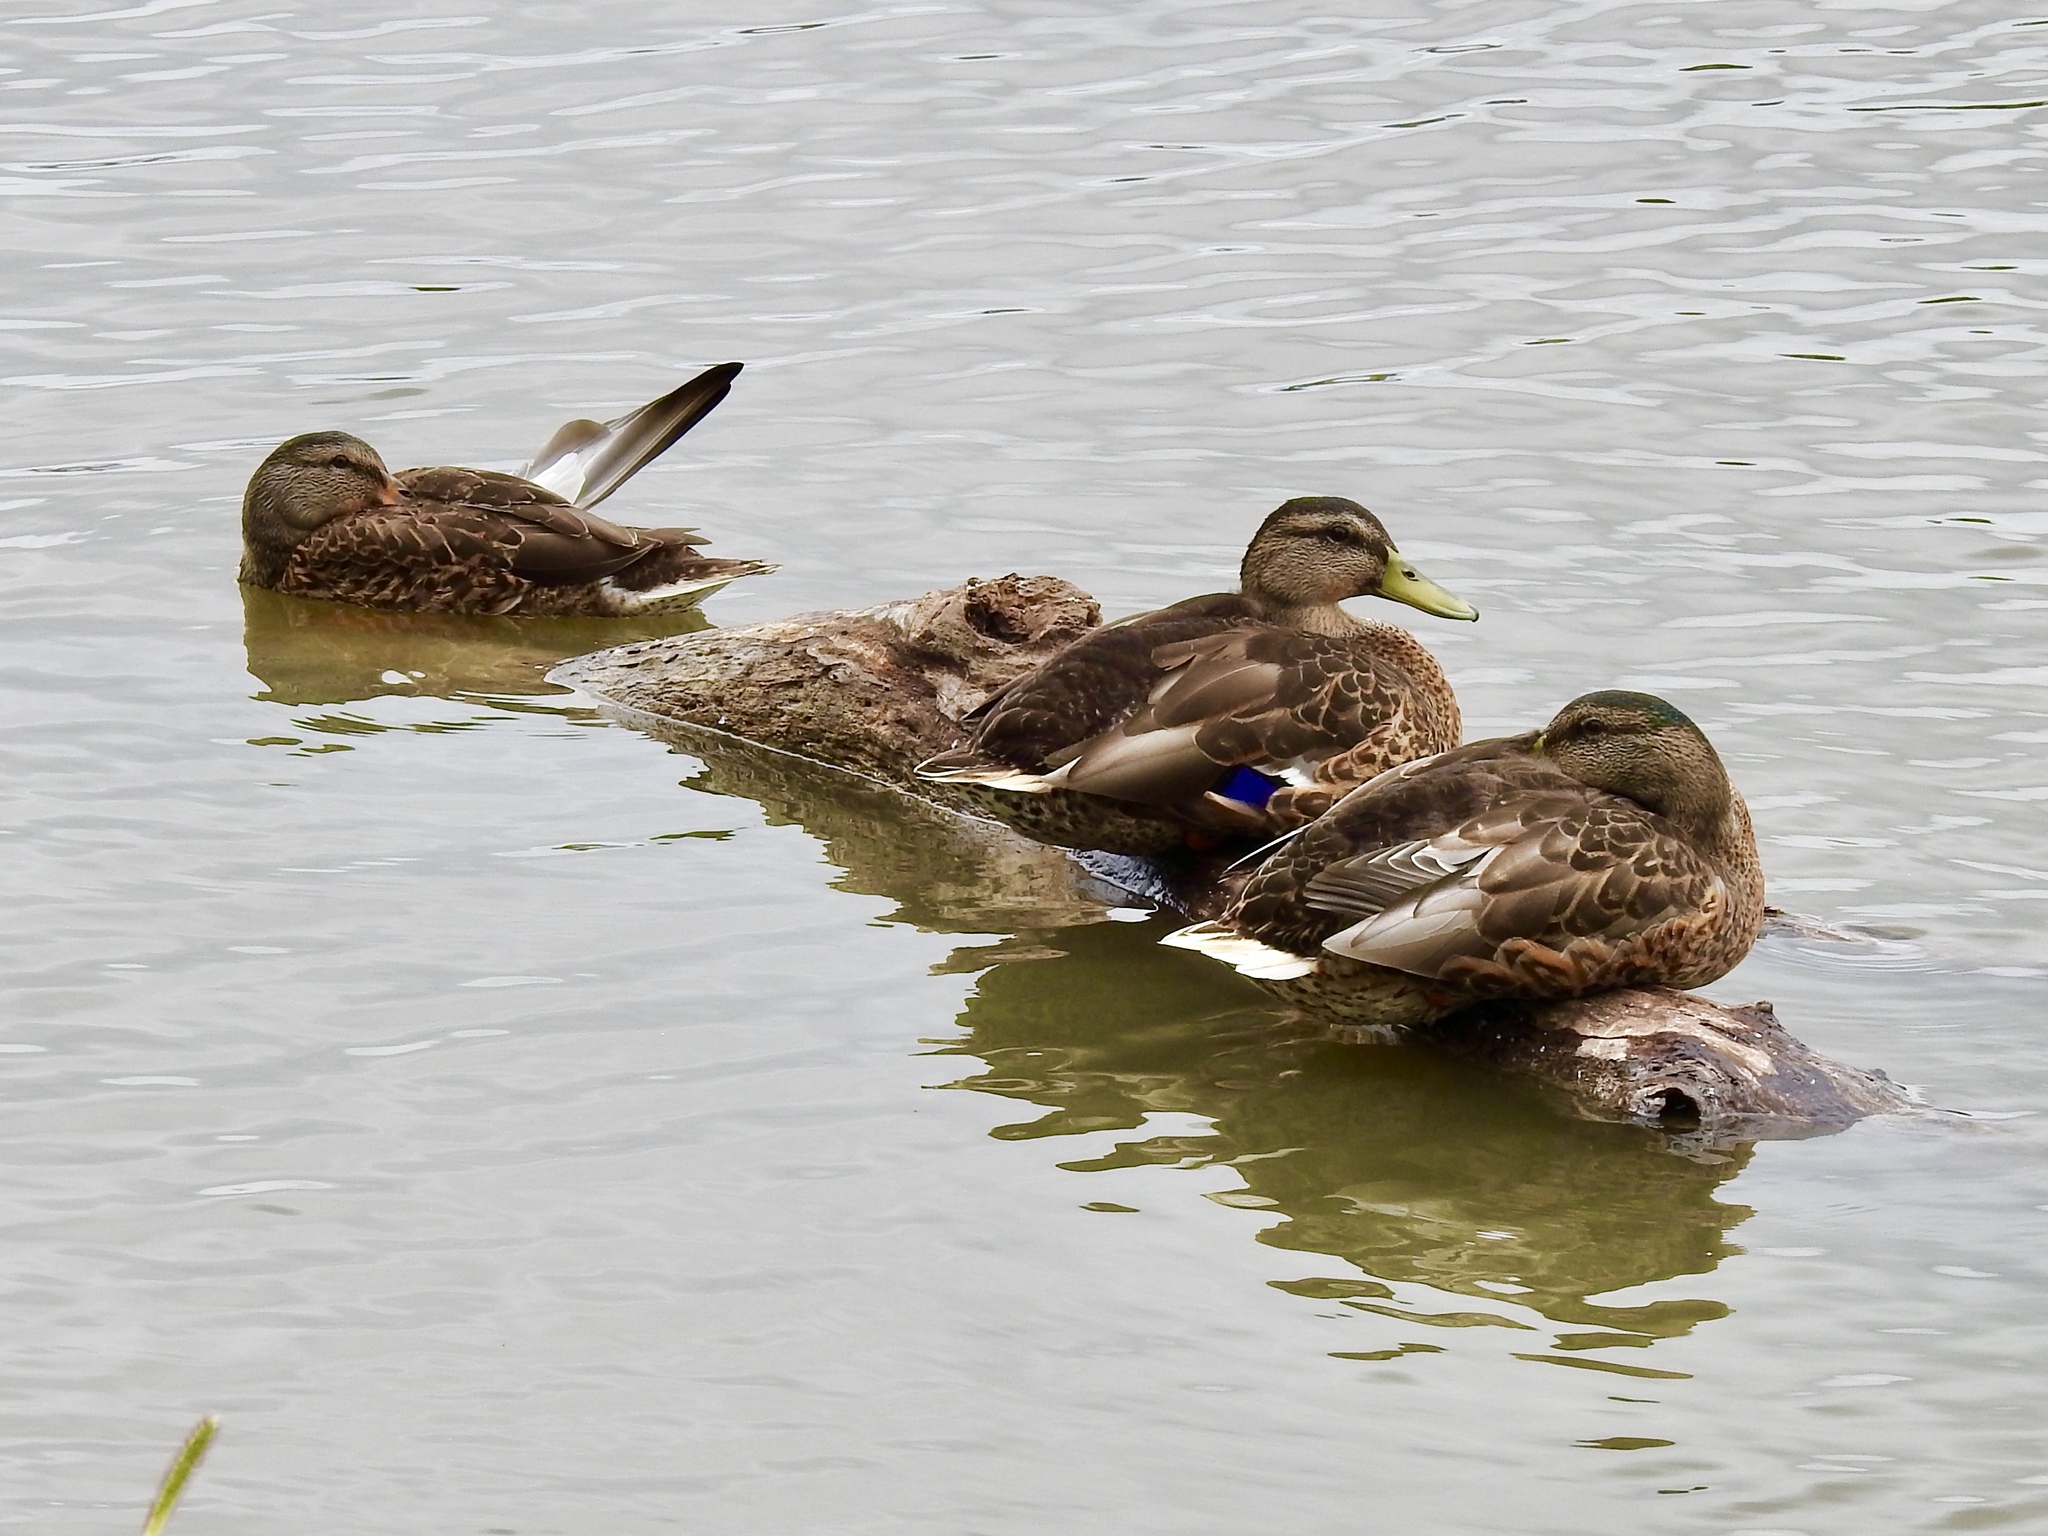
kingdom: Animalia
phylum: Chordata
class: Aves
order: Anseriformes
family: Anatidae
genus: Anas
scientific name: Anas platyrhynchos
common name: Mallard
